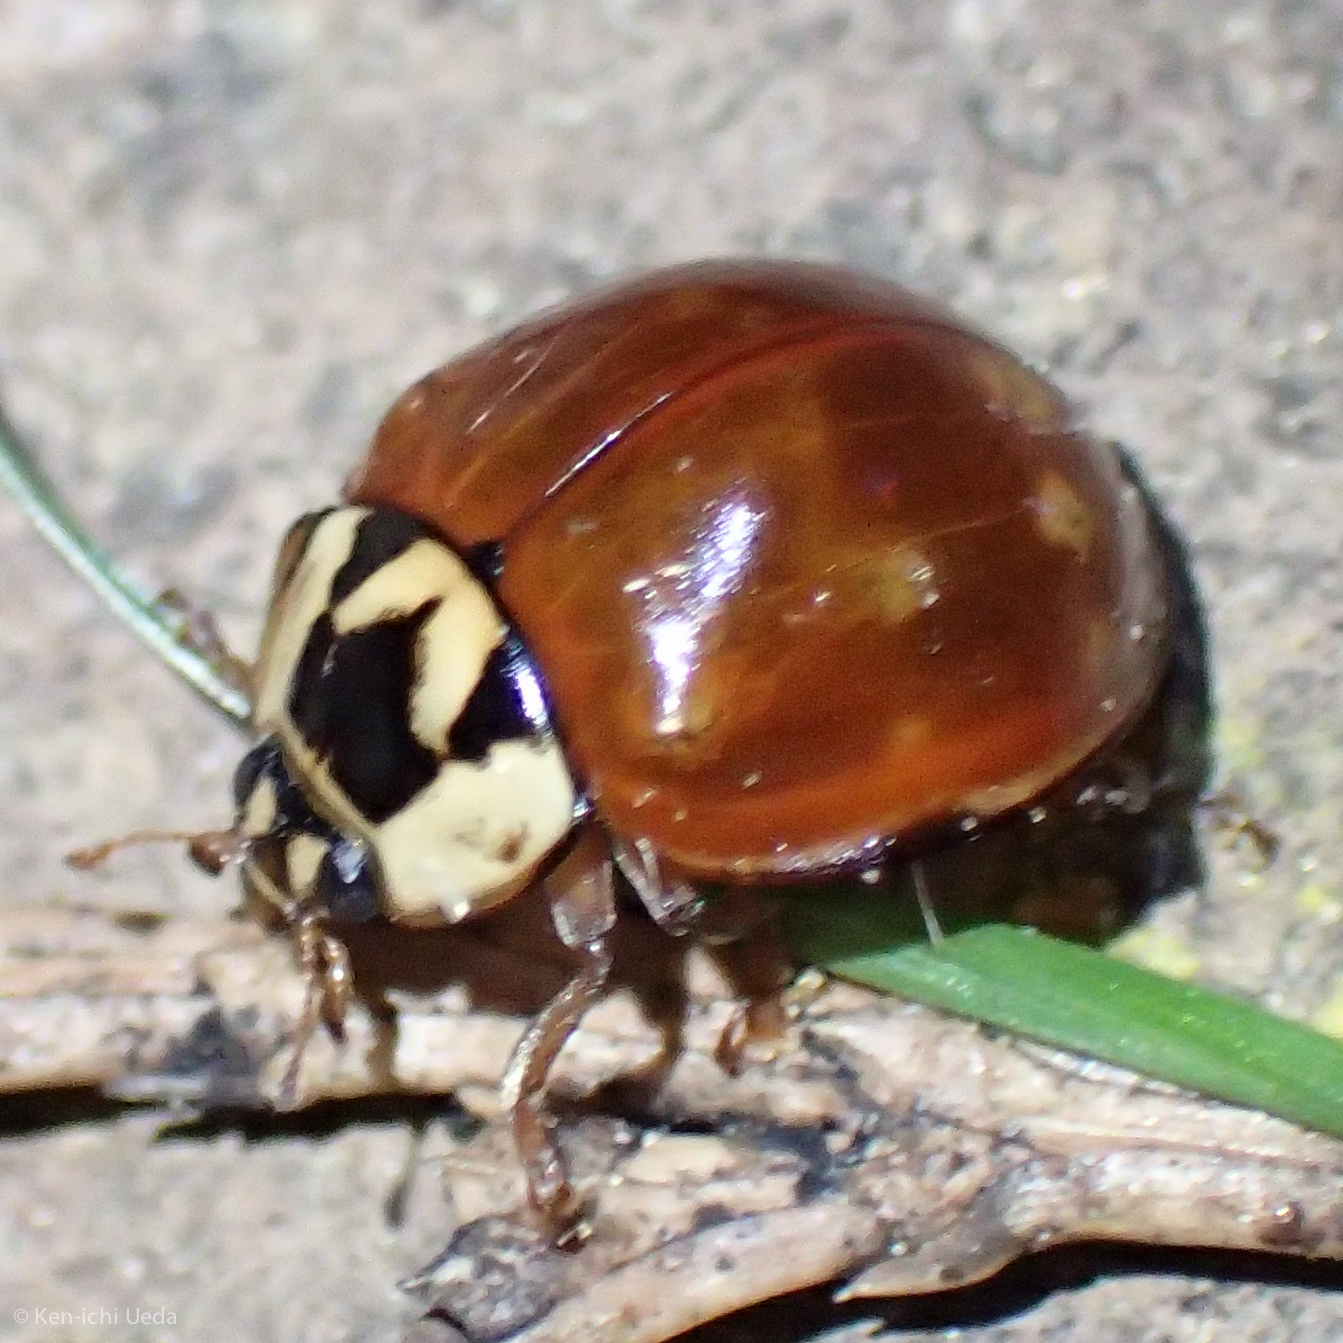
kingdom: Animalia
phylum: Arthropoda
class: Insecta
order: Coleoptera
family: Coccinellidae
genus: Anatis
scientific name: Anatis rathvoni
